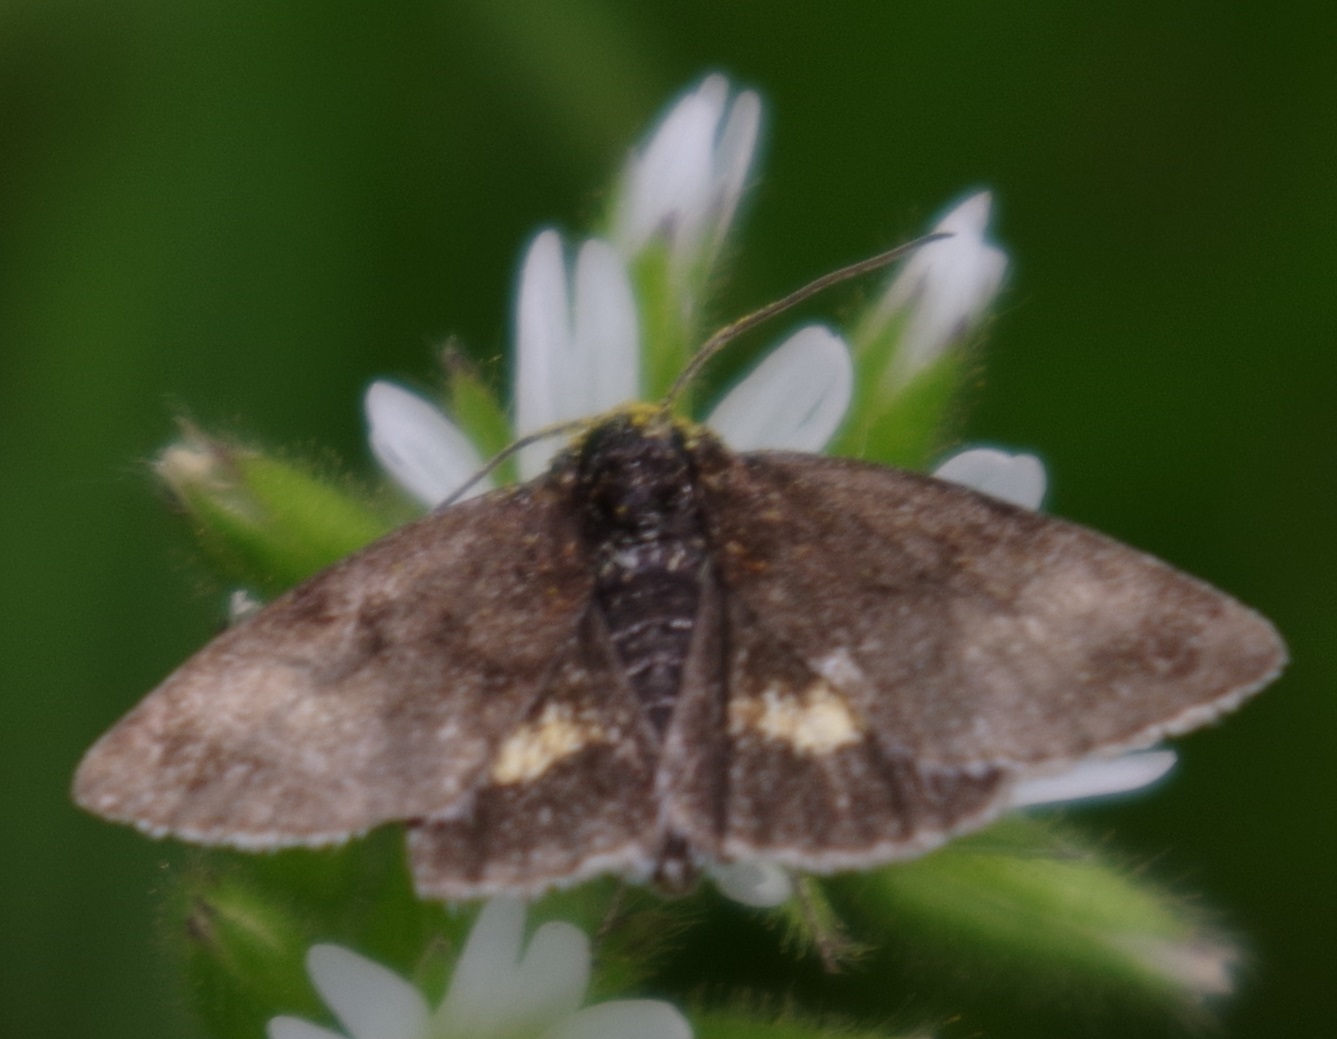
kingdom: Animalia
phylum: Arthropoda
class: Insecta
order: Lepidoptera
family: Noctuidae
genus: Panemeria
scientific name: Panemeria tenebrata
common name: Small yellow underwing
